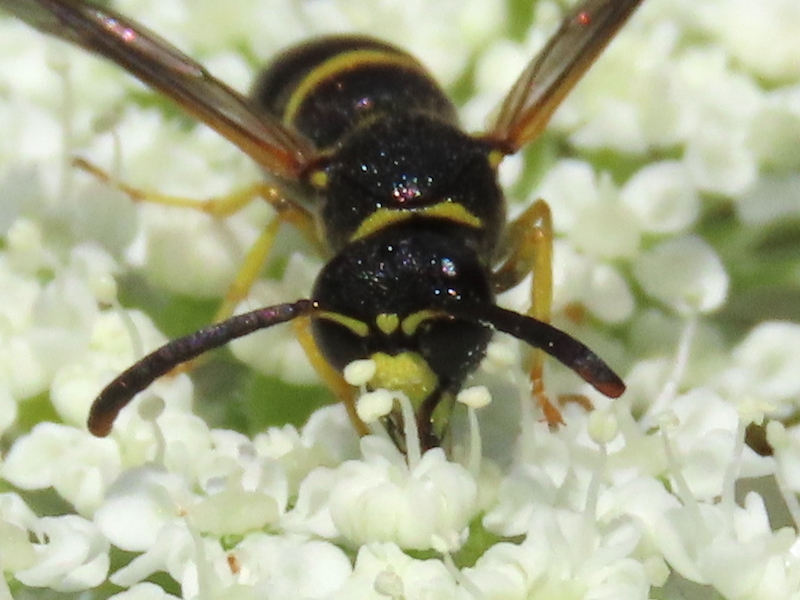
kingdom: Animalia
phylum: Arthropoda
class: Insecta
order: Hymenoptera
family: Vespidae
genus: Ancistrocerus
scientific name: Ancistrocerus
